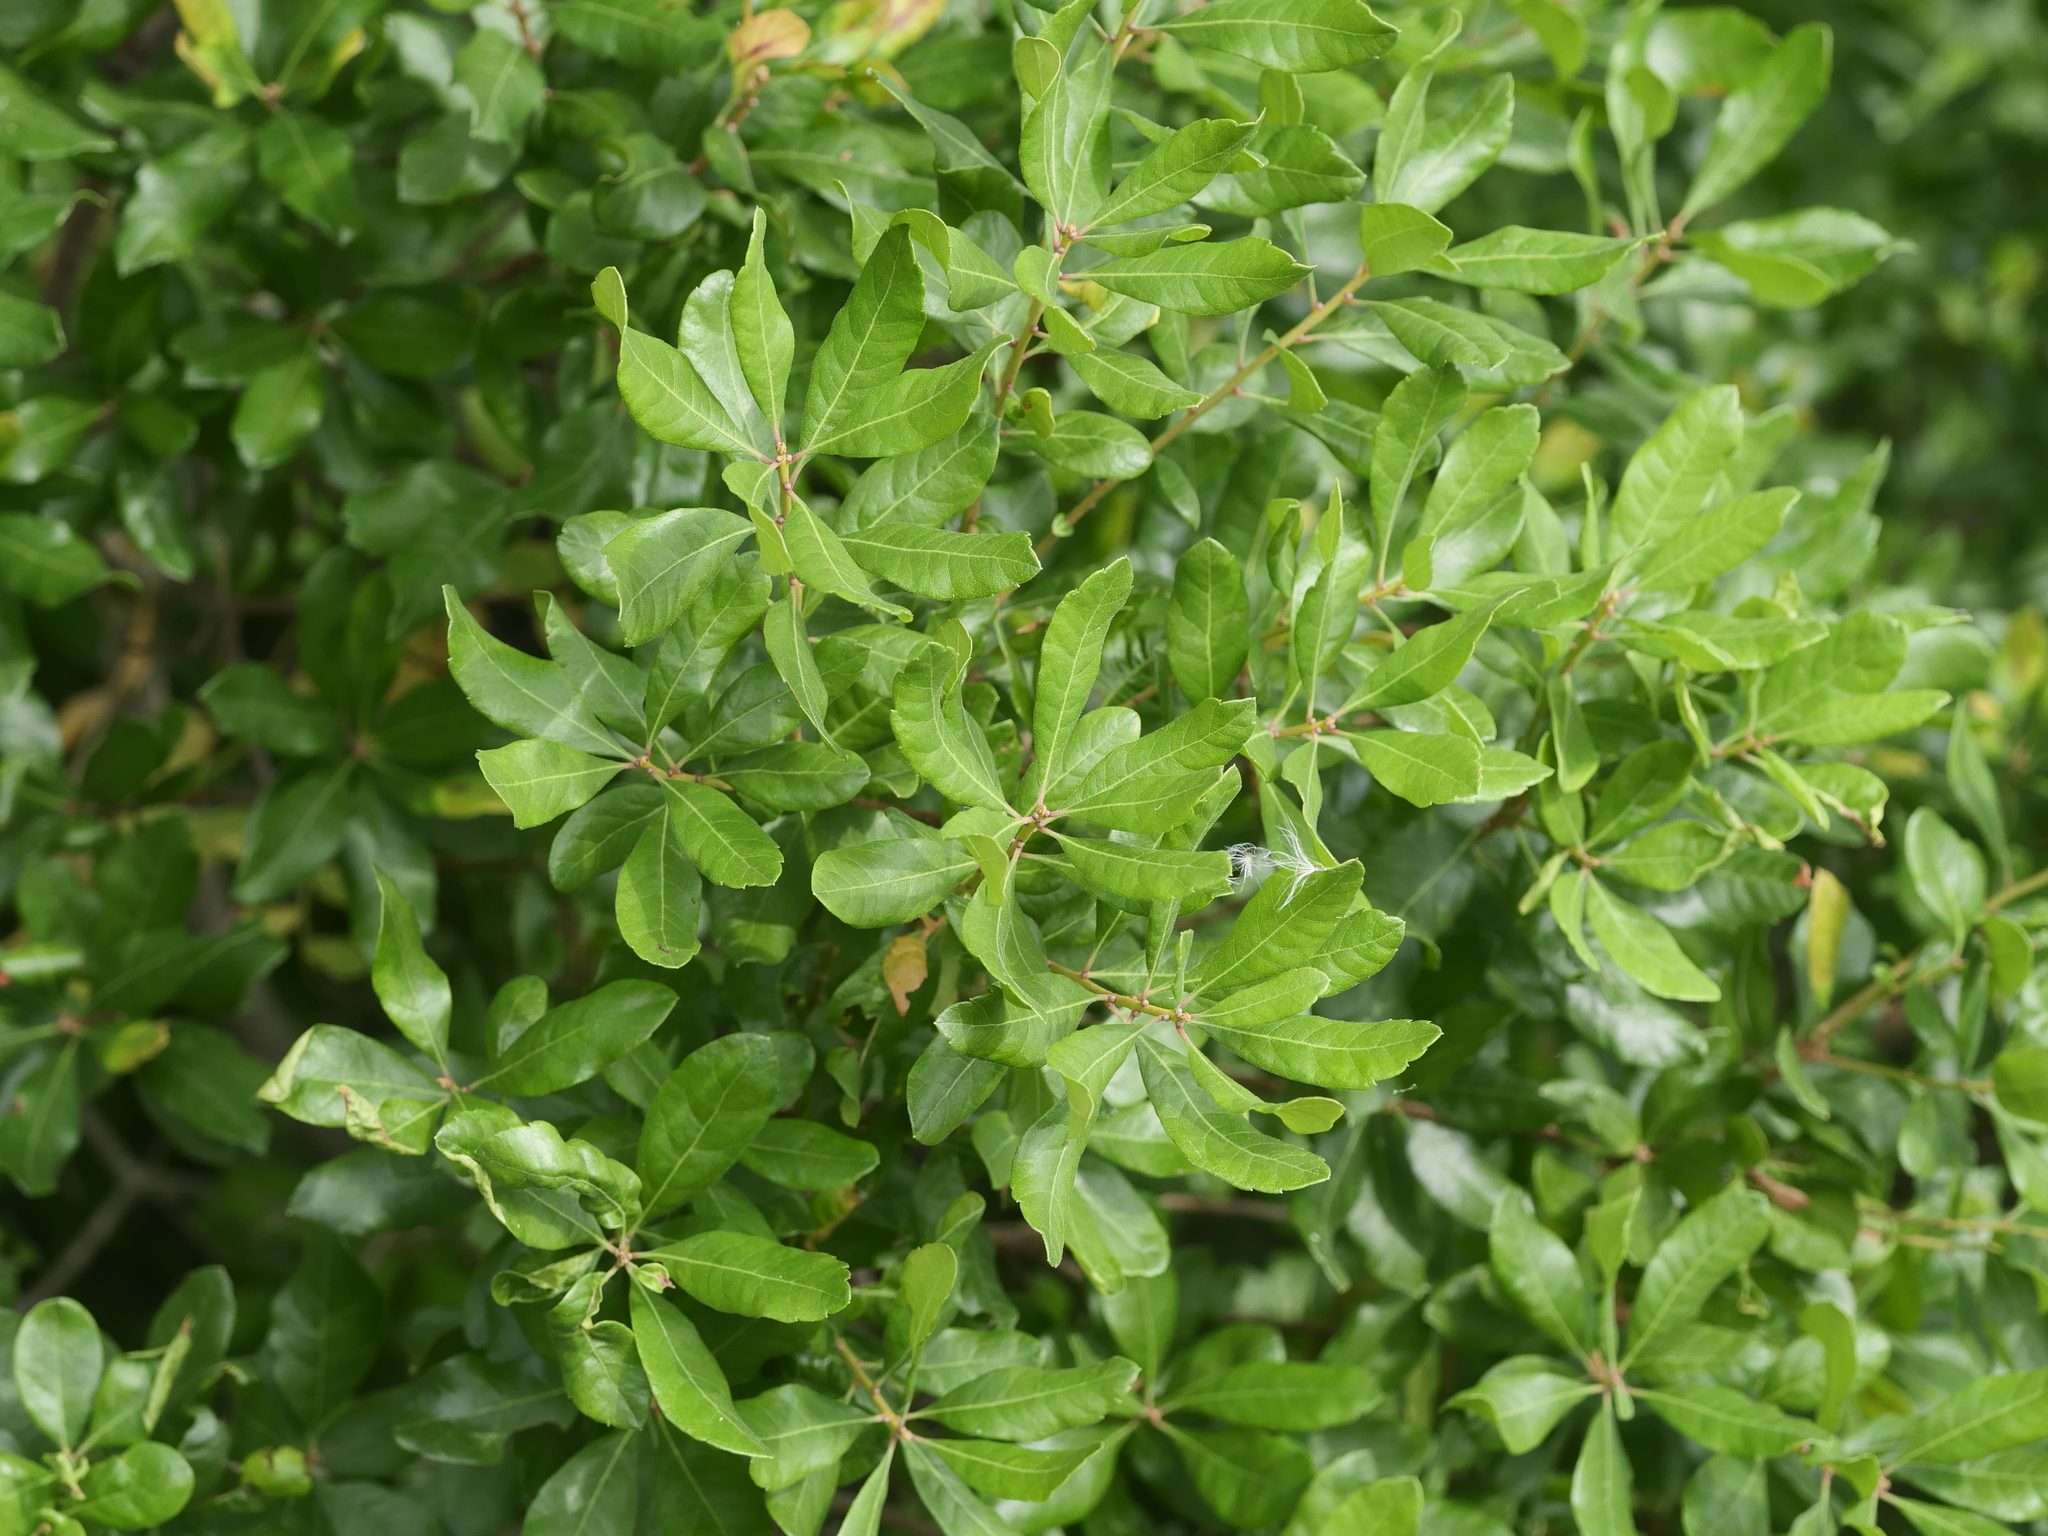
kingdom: Plantae
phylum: Tracheophyta
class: Magnoliopsida
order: Fagales
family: Myricaceae
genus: Morella
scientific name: Morella pensylvanica
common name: Northern bayberry
